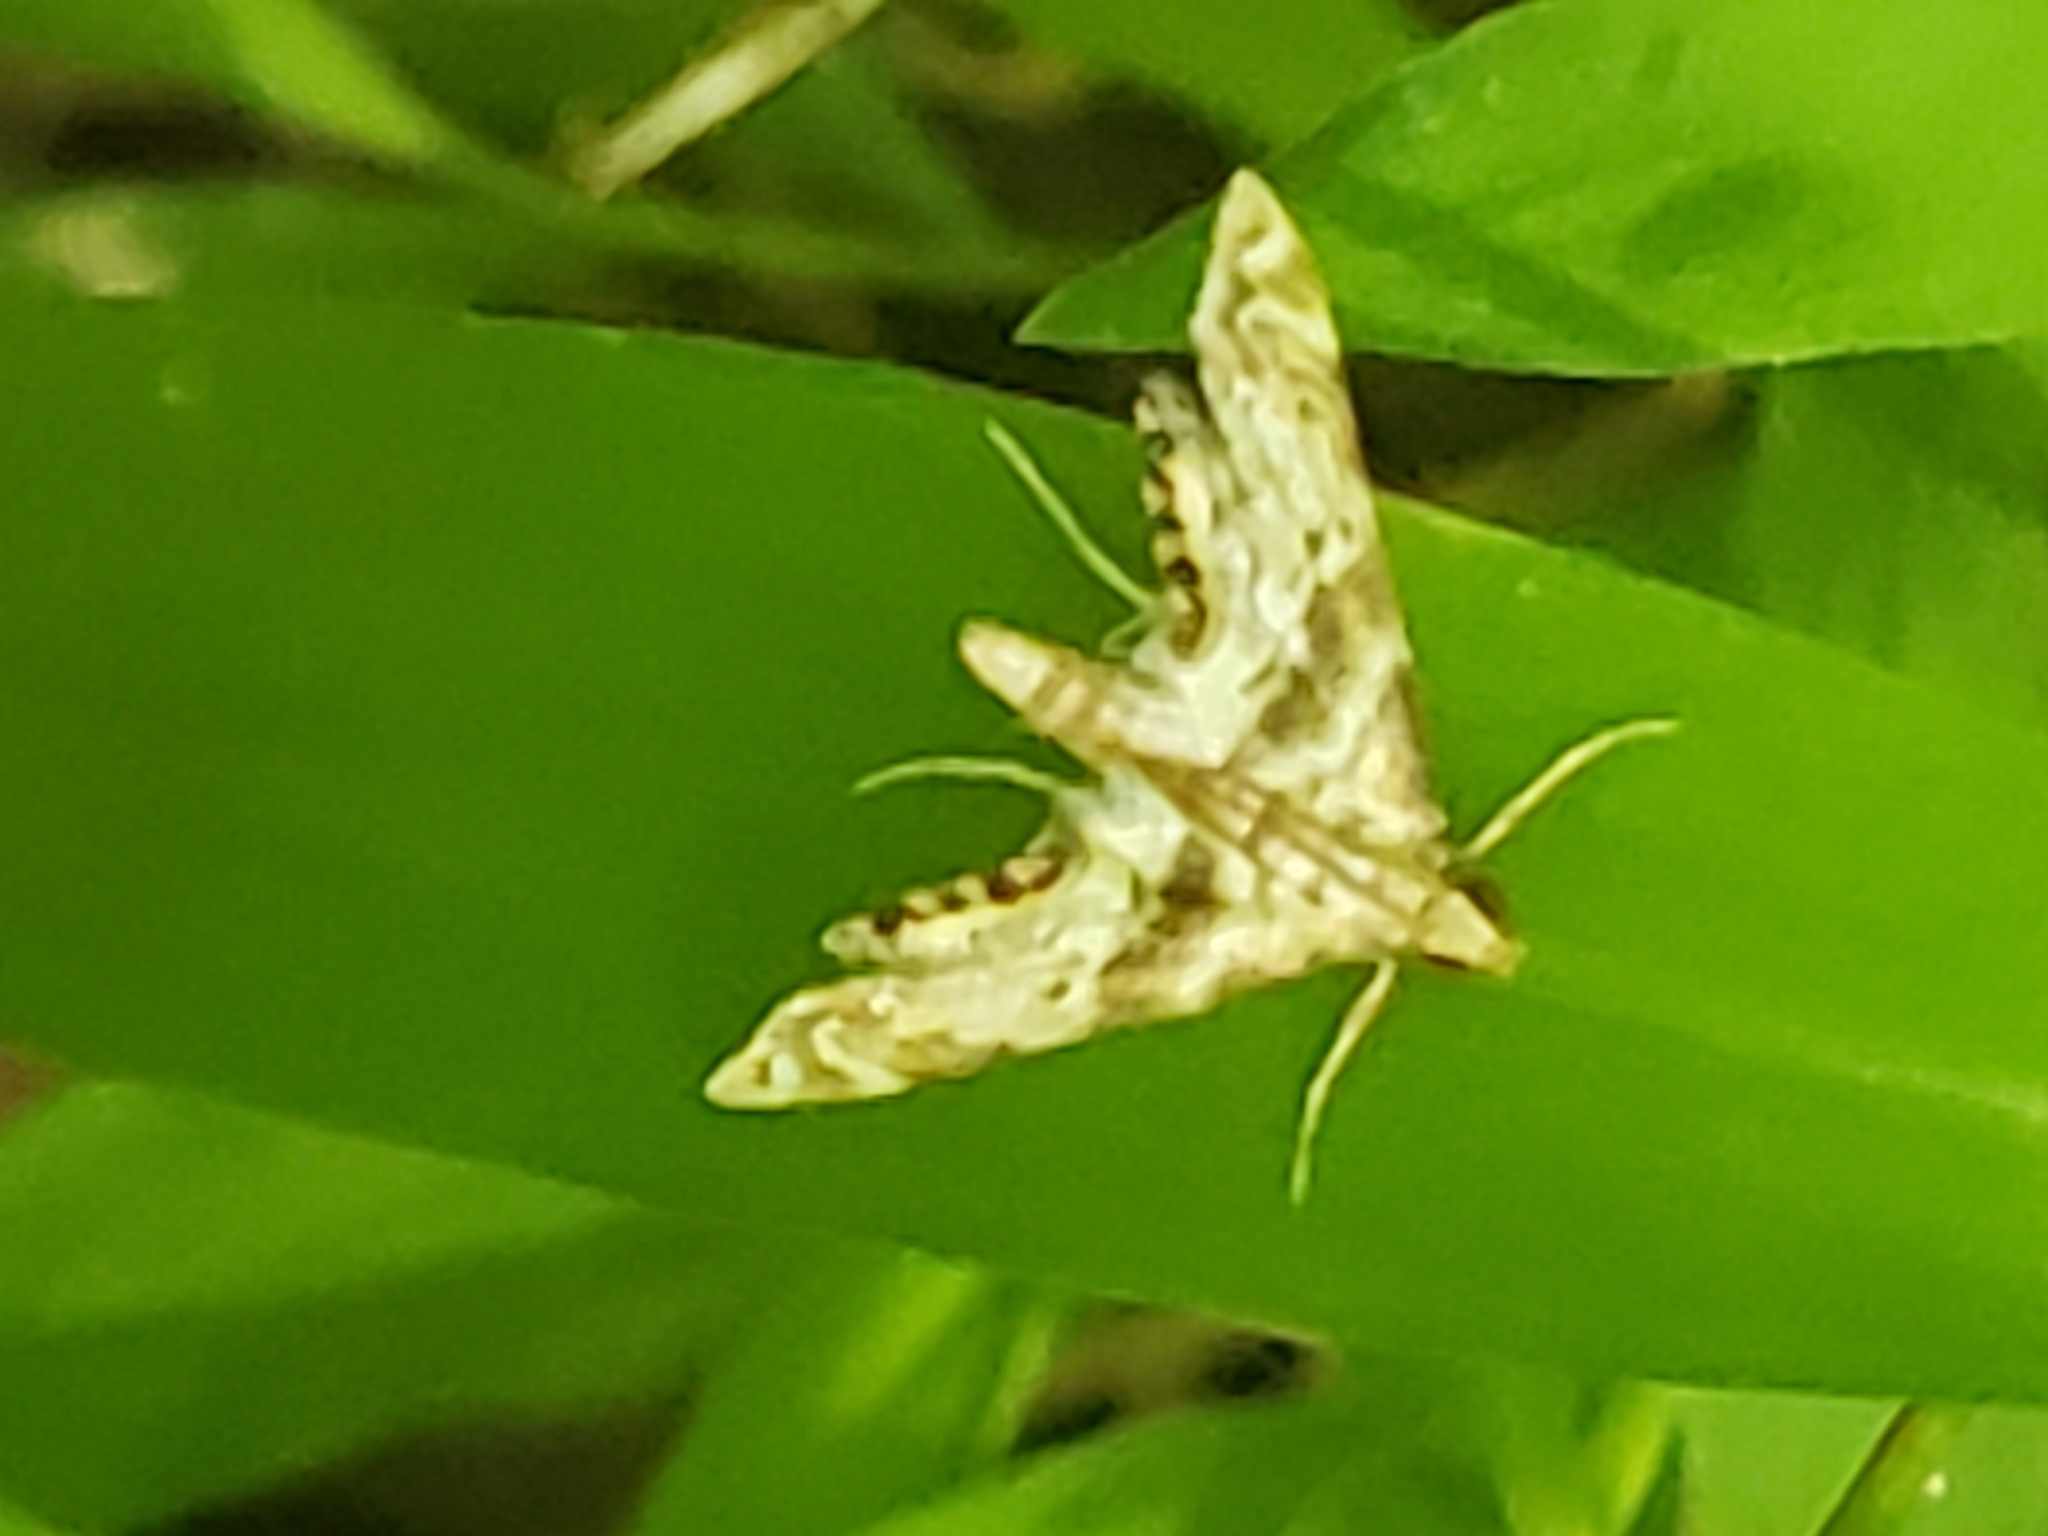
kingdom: Animalia
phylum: Arthropoda
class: Insecta
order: Lepidoptera
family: Crambidae
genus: Petrophila
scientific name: Petrophila fulicalis
